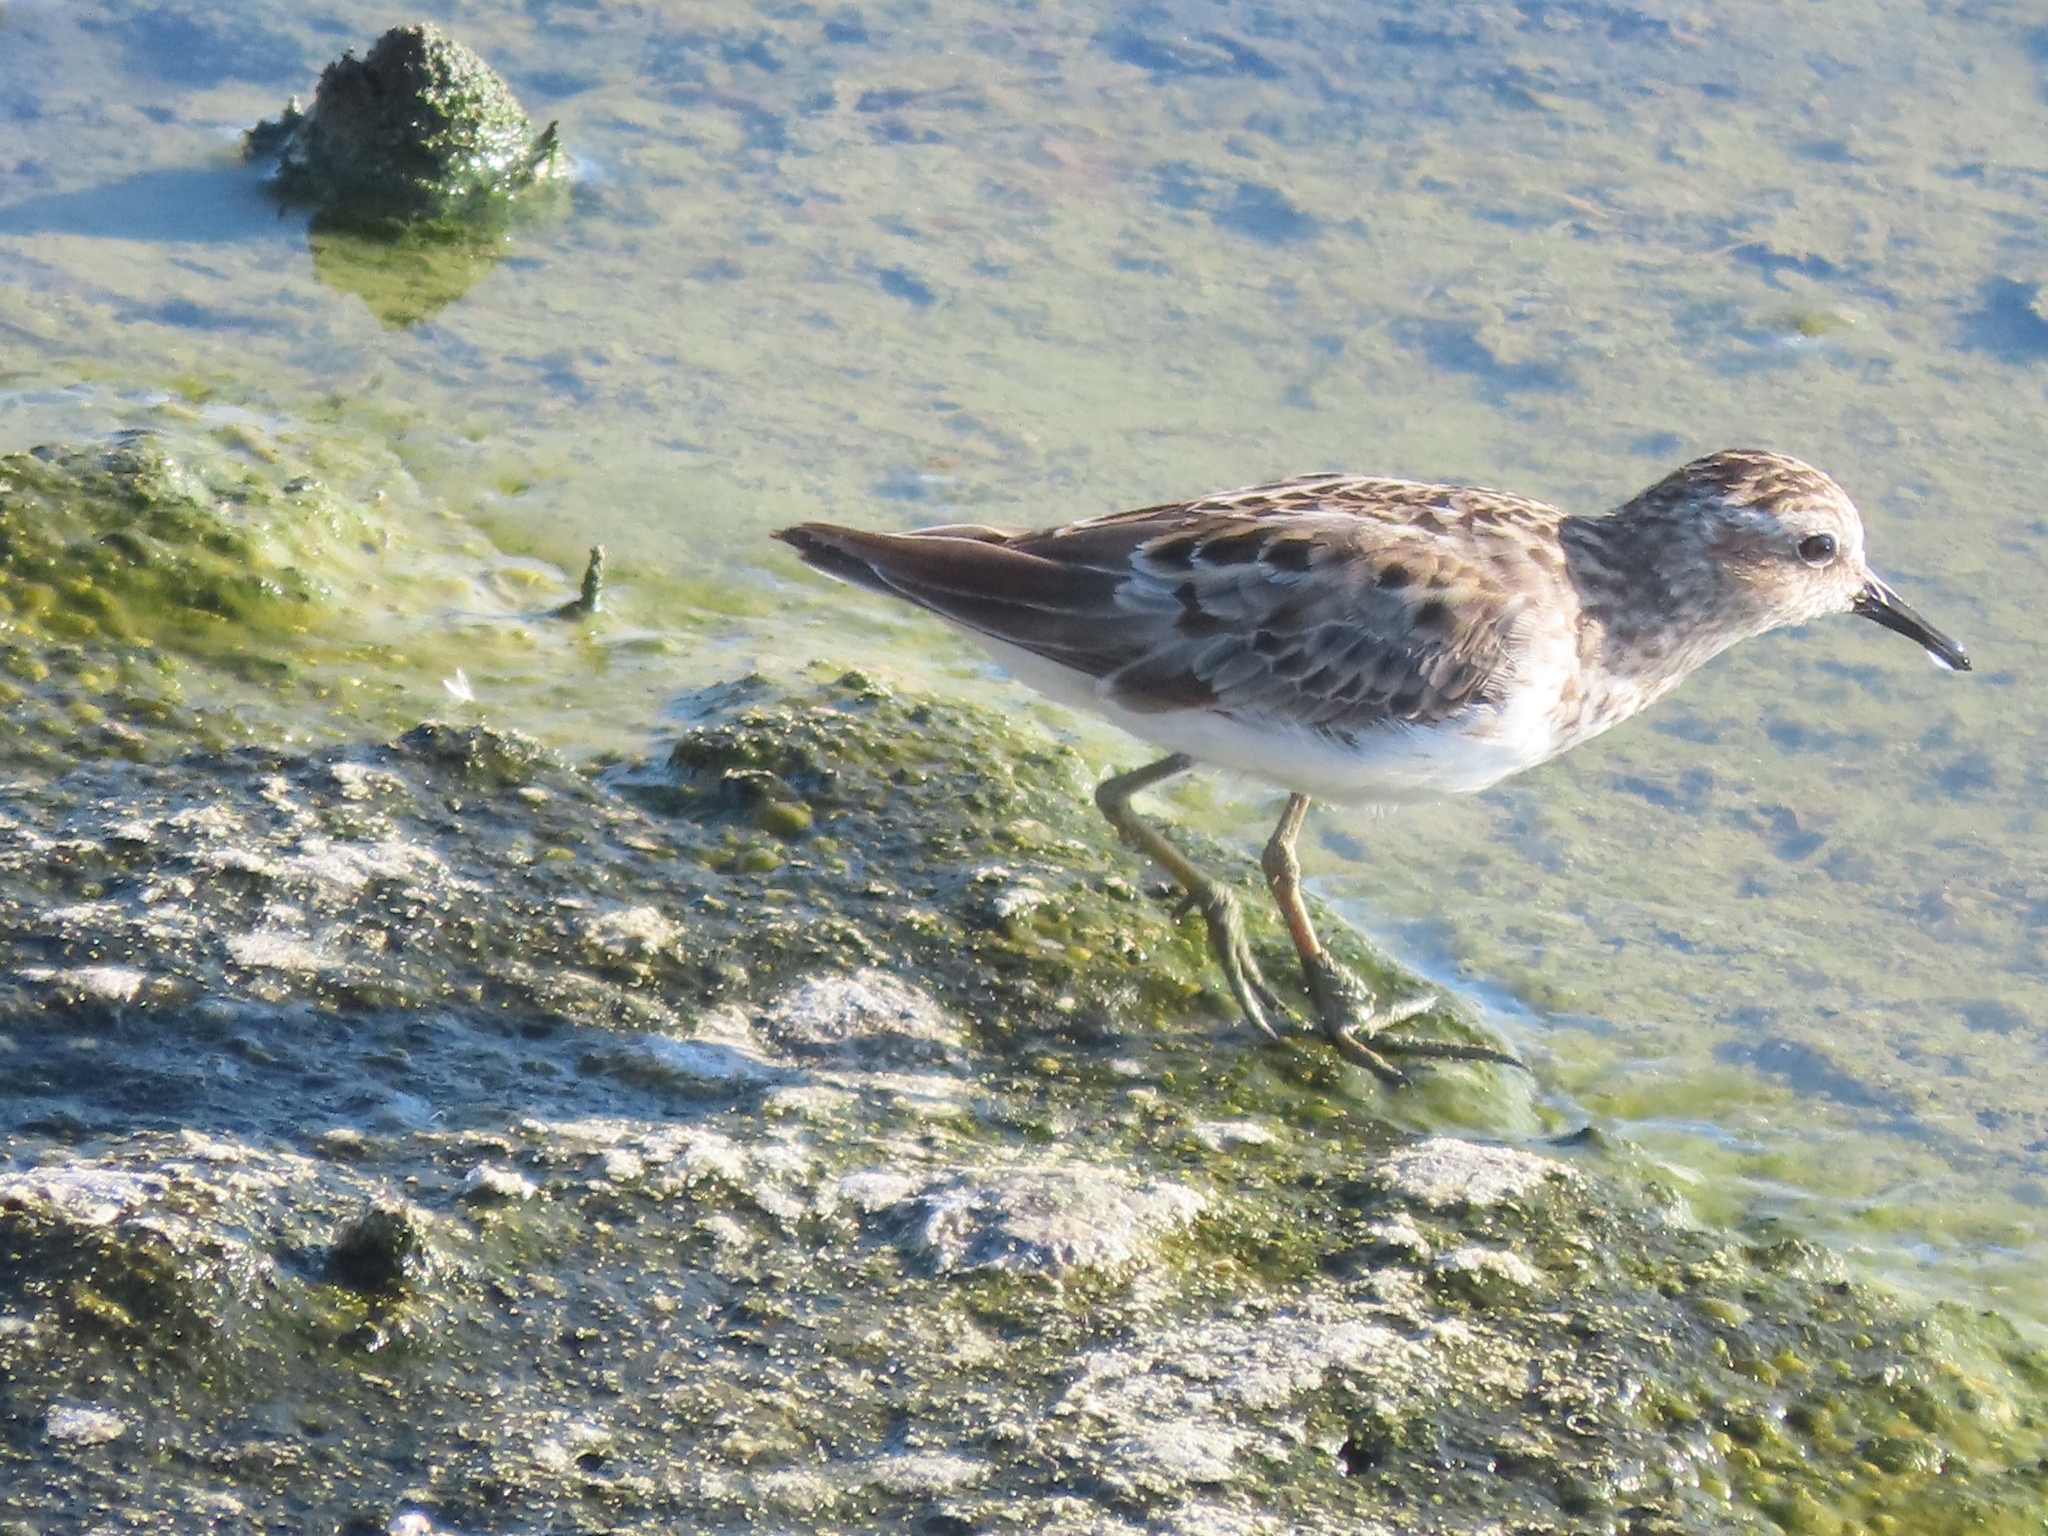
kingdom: Animalia
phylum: Chordata
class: Aves
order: Charadriiformes
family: Scolopacidae
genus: Calidris
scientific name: Calidris minutilla
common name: Least sandpiper
